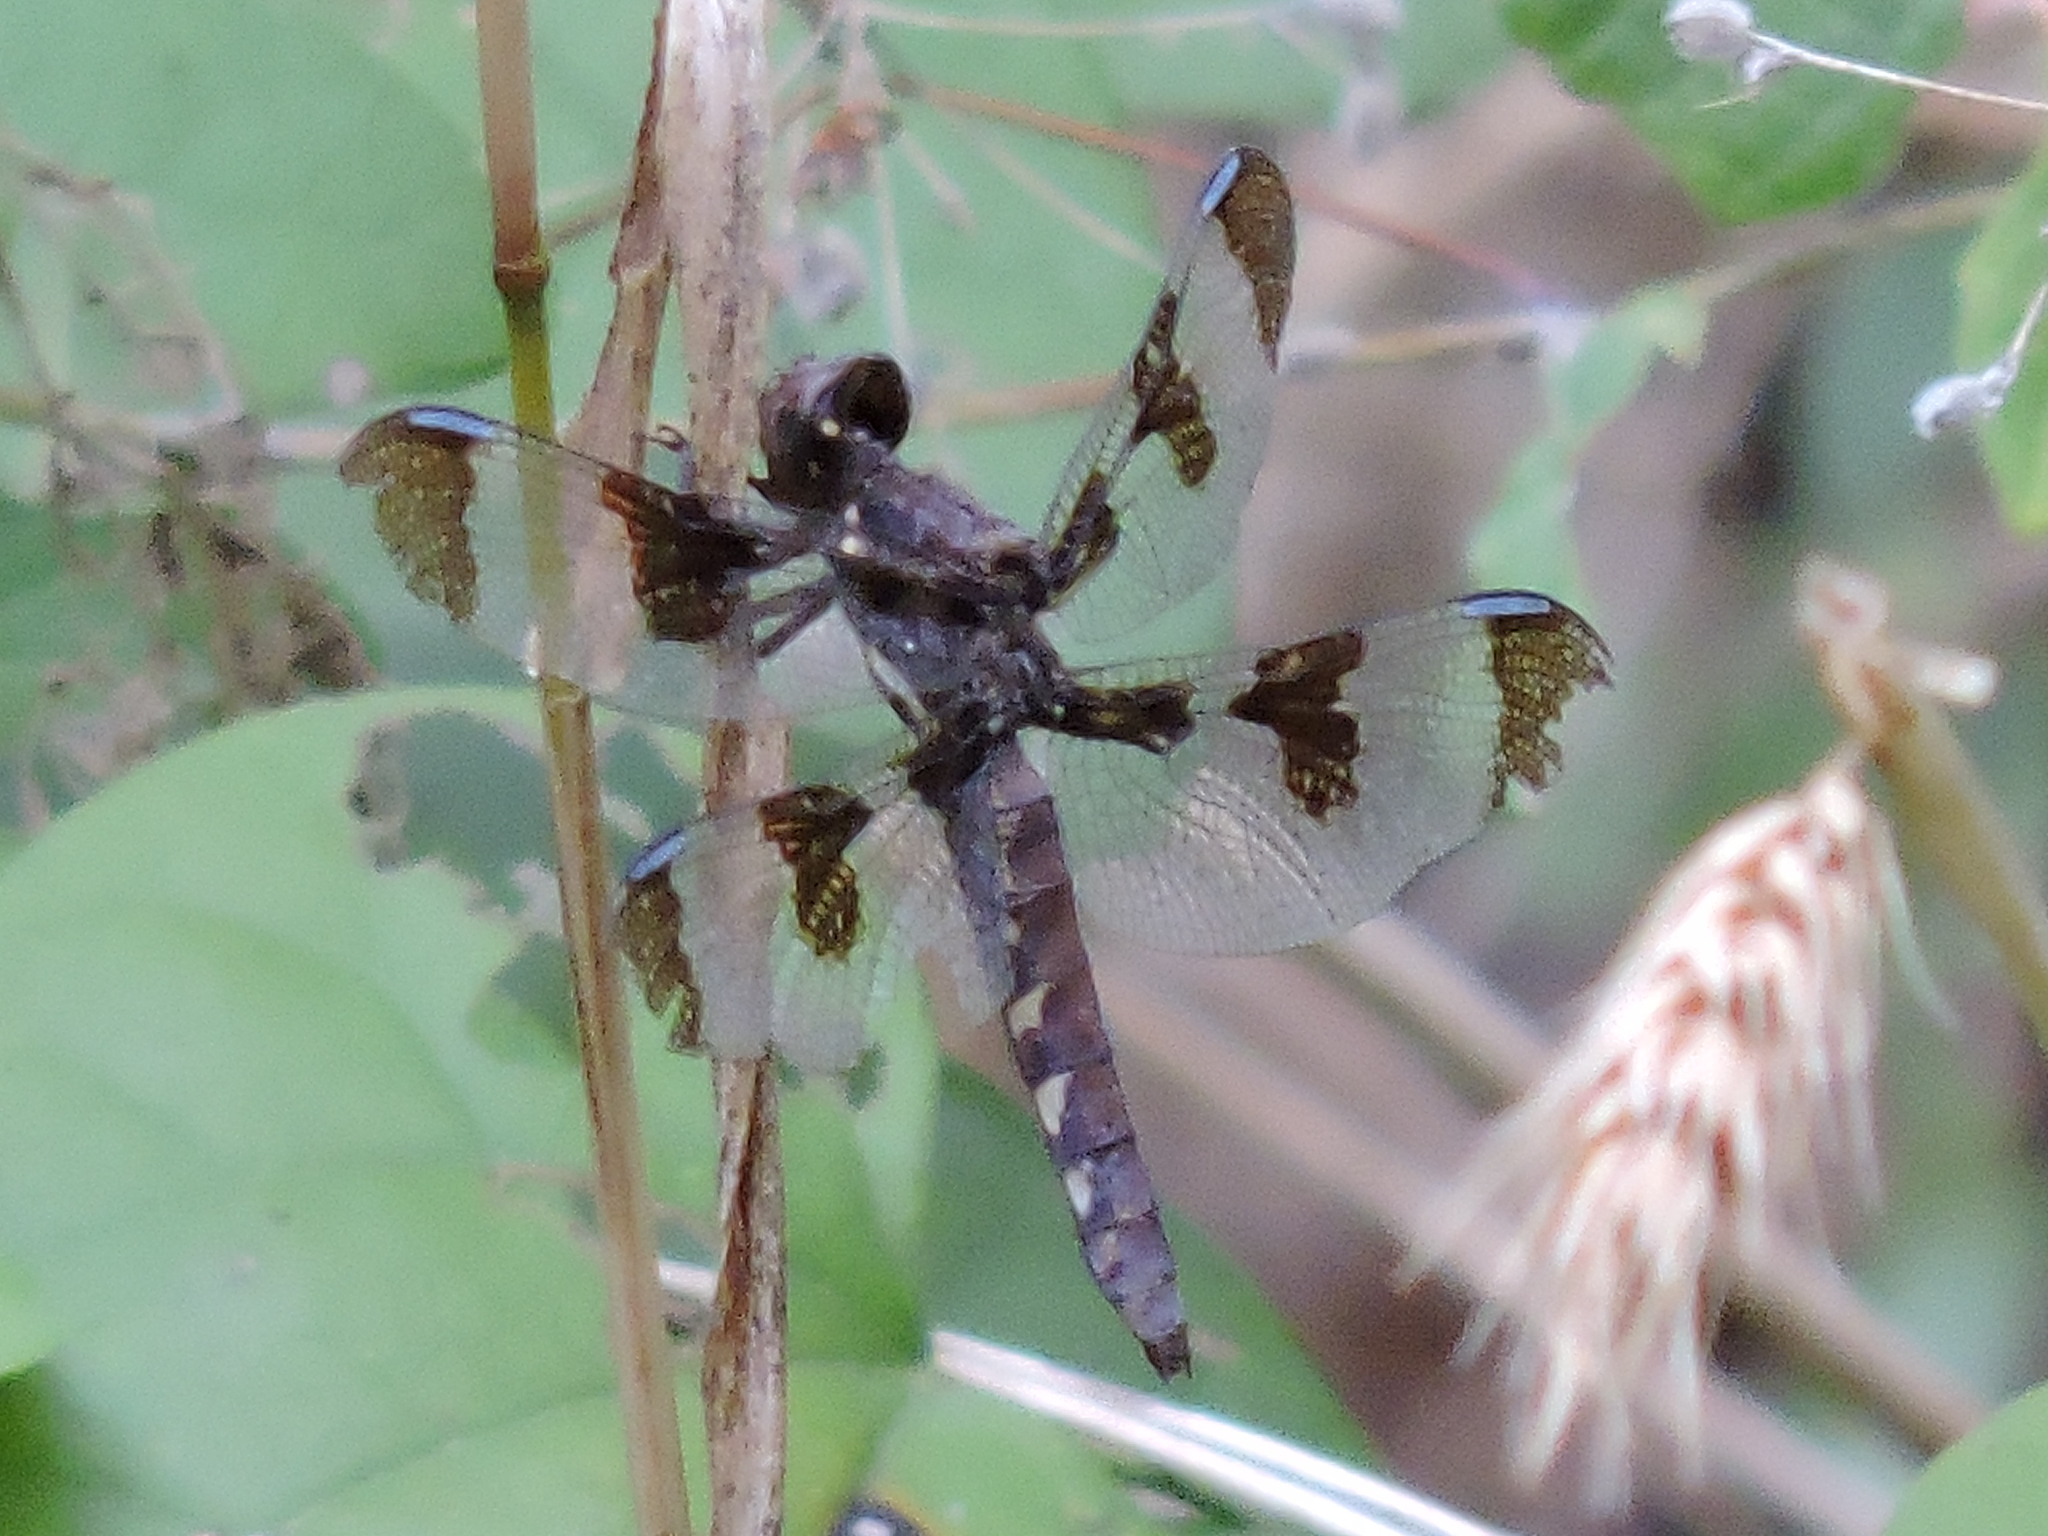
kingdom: Animalia
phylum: Arthropoda
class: Insecta
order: Odonata
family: Libellulidae
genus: Plathemis
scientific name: Plathemis lydia
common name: Common whitetail
